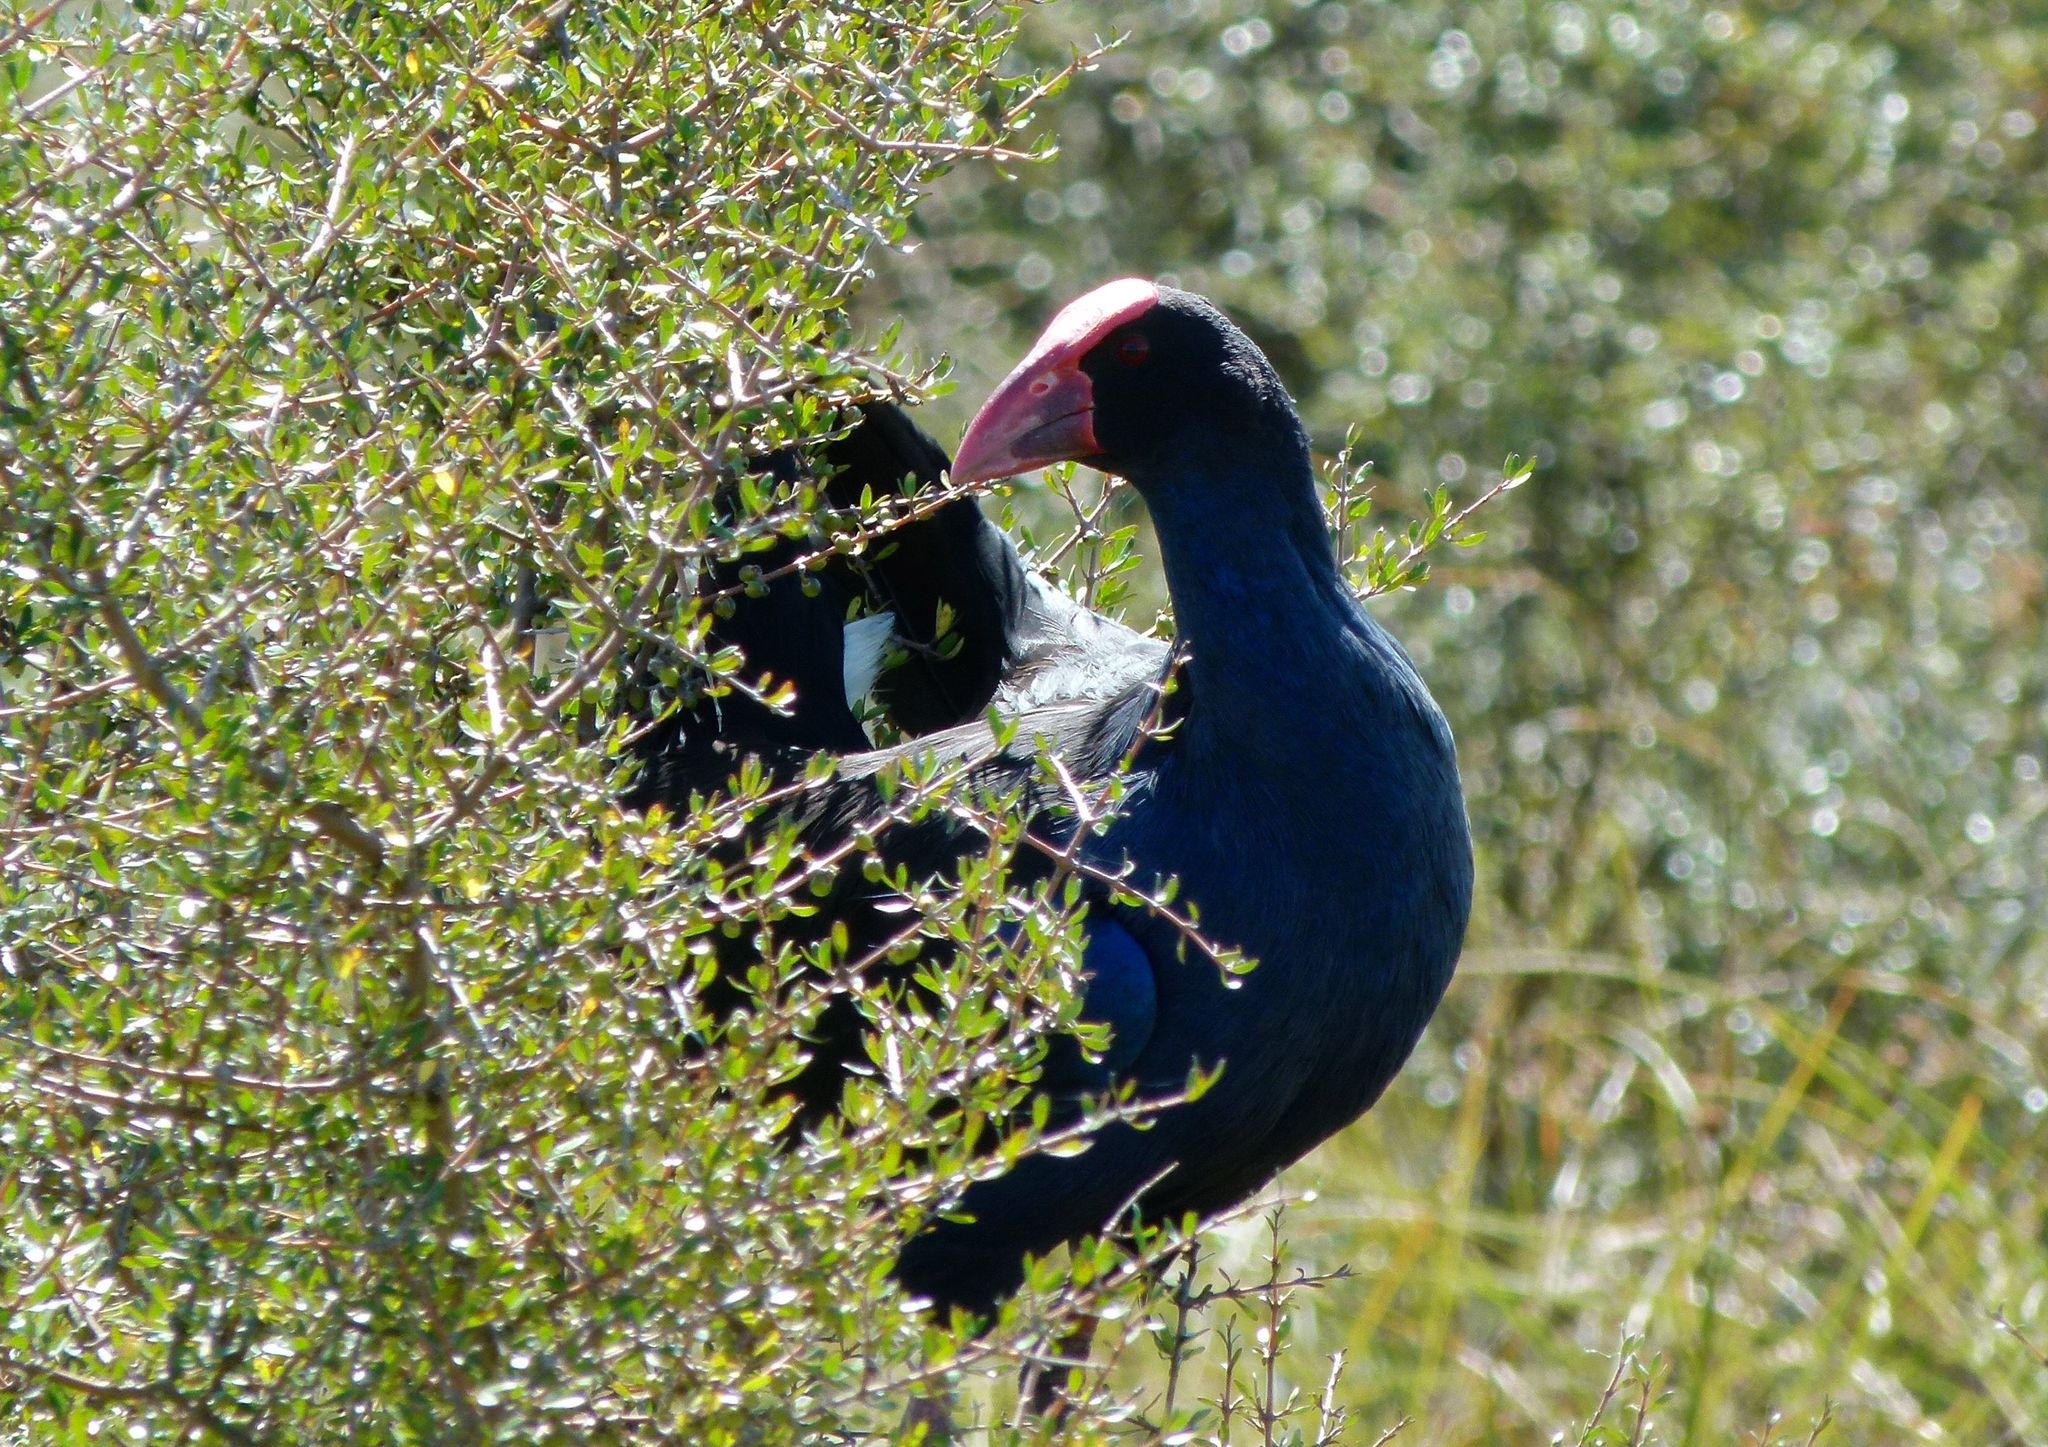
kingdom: Animalia
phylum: Chordata
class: Aves
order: Gruiformes
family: Rallidae
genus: Porphyrio
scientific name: Porphyrio melanotus
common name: Australasian swamphen
